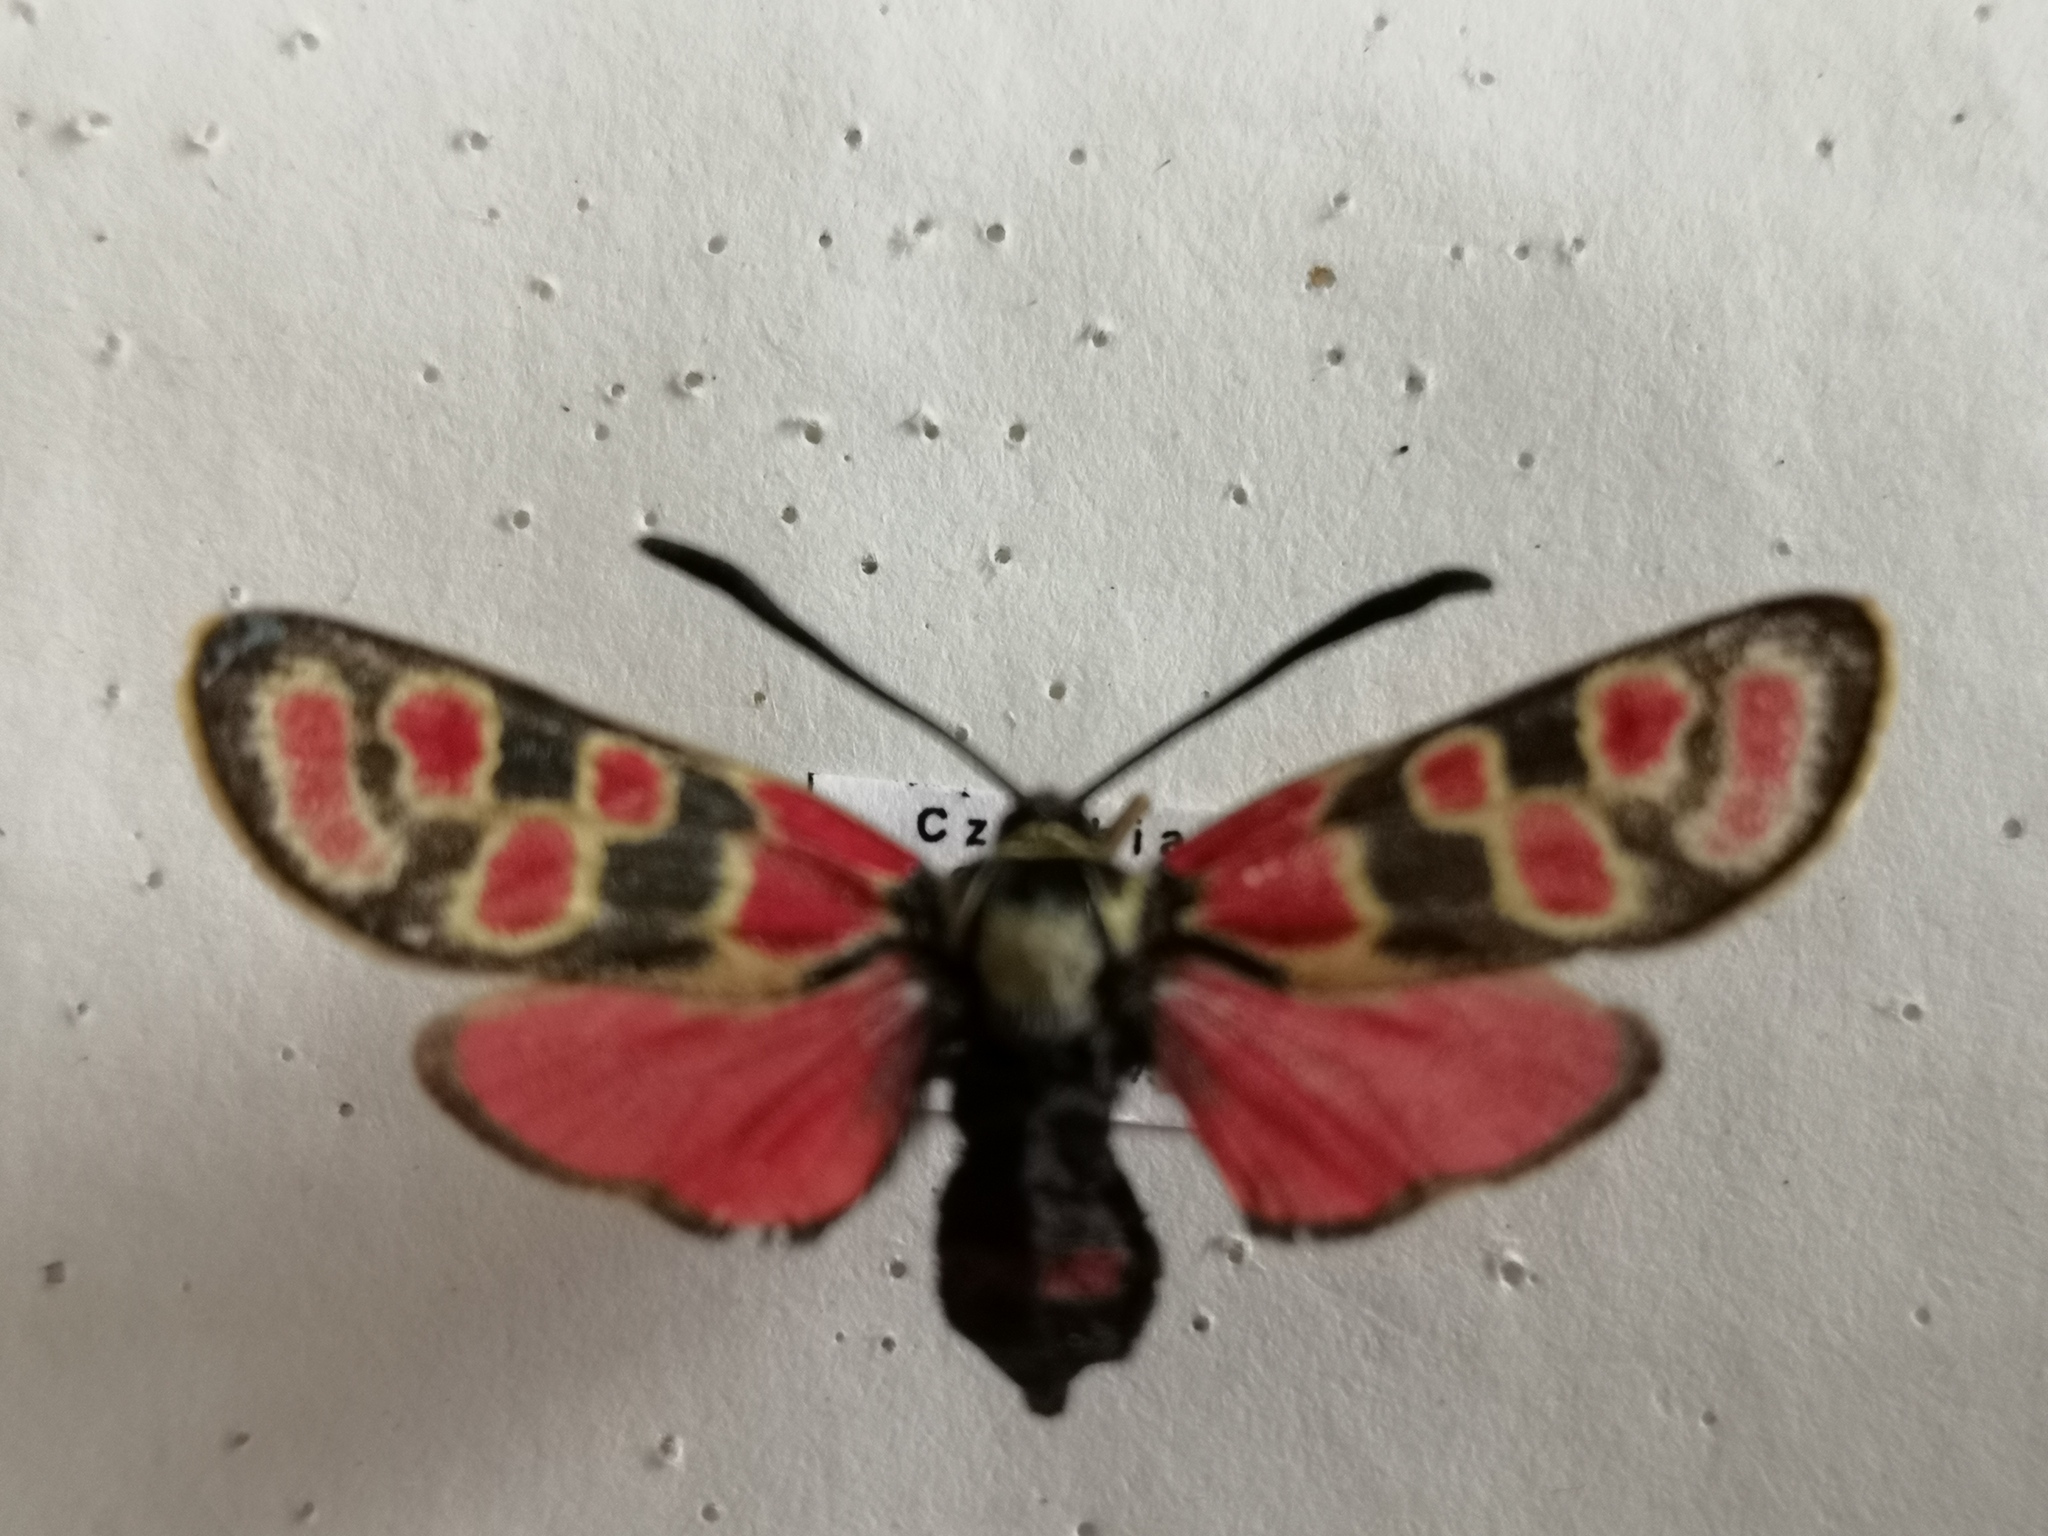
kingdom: Animalia
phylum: Arthropoda
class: Insecta
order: Lepidoptera
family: Zygaenidae
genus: Zygaena
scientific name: Zygaena carniolica
